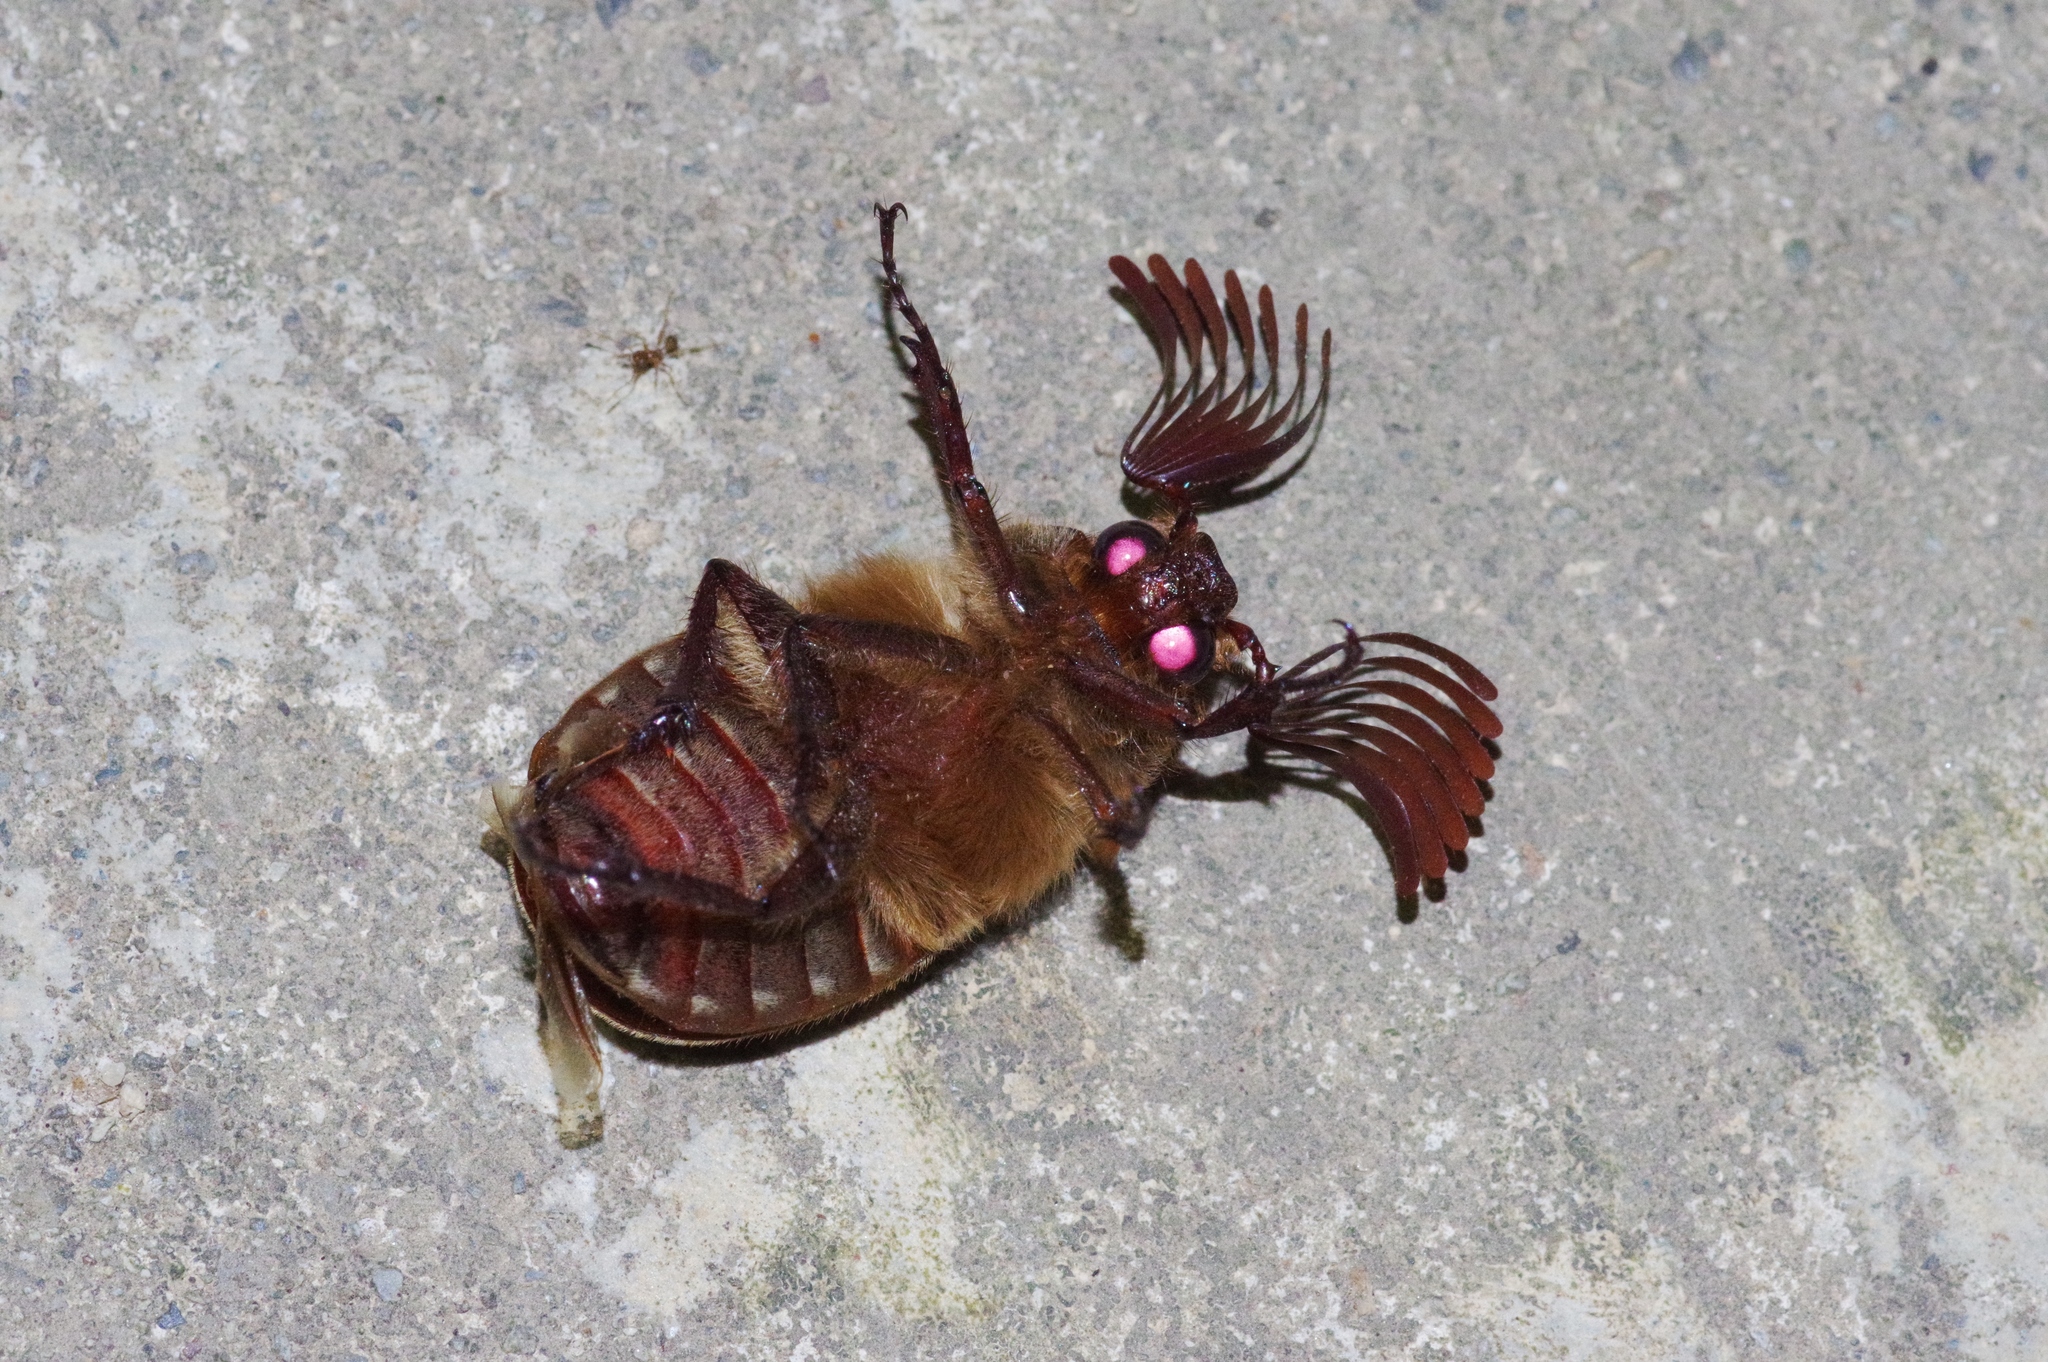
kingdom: Animalia
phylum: Arthropoda
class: Insecta
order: Coleoptera
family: Scarabaeidae
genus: Tricholontha
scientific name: Tricholontha papagena
